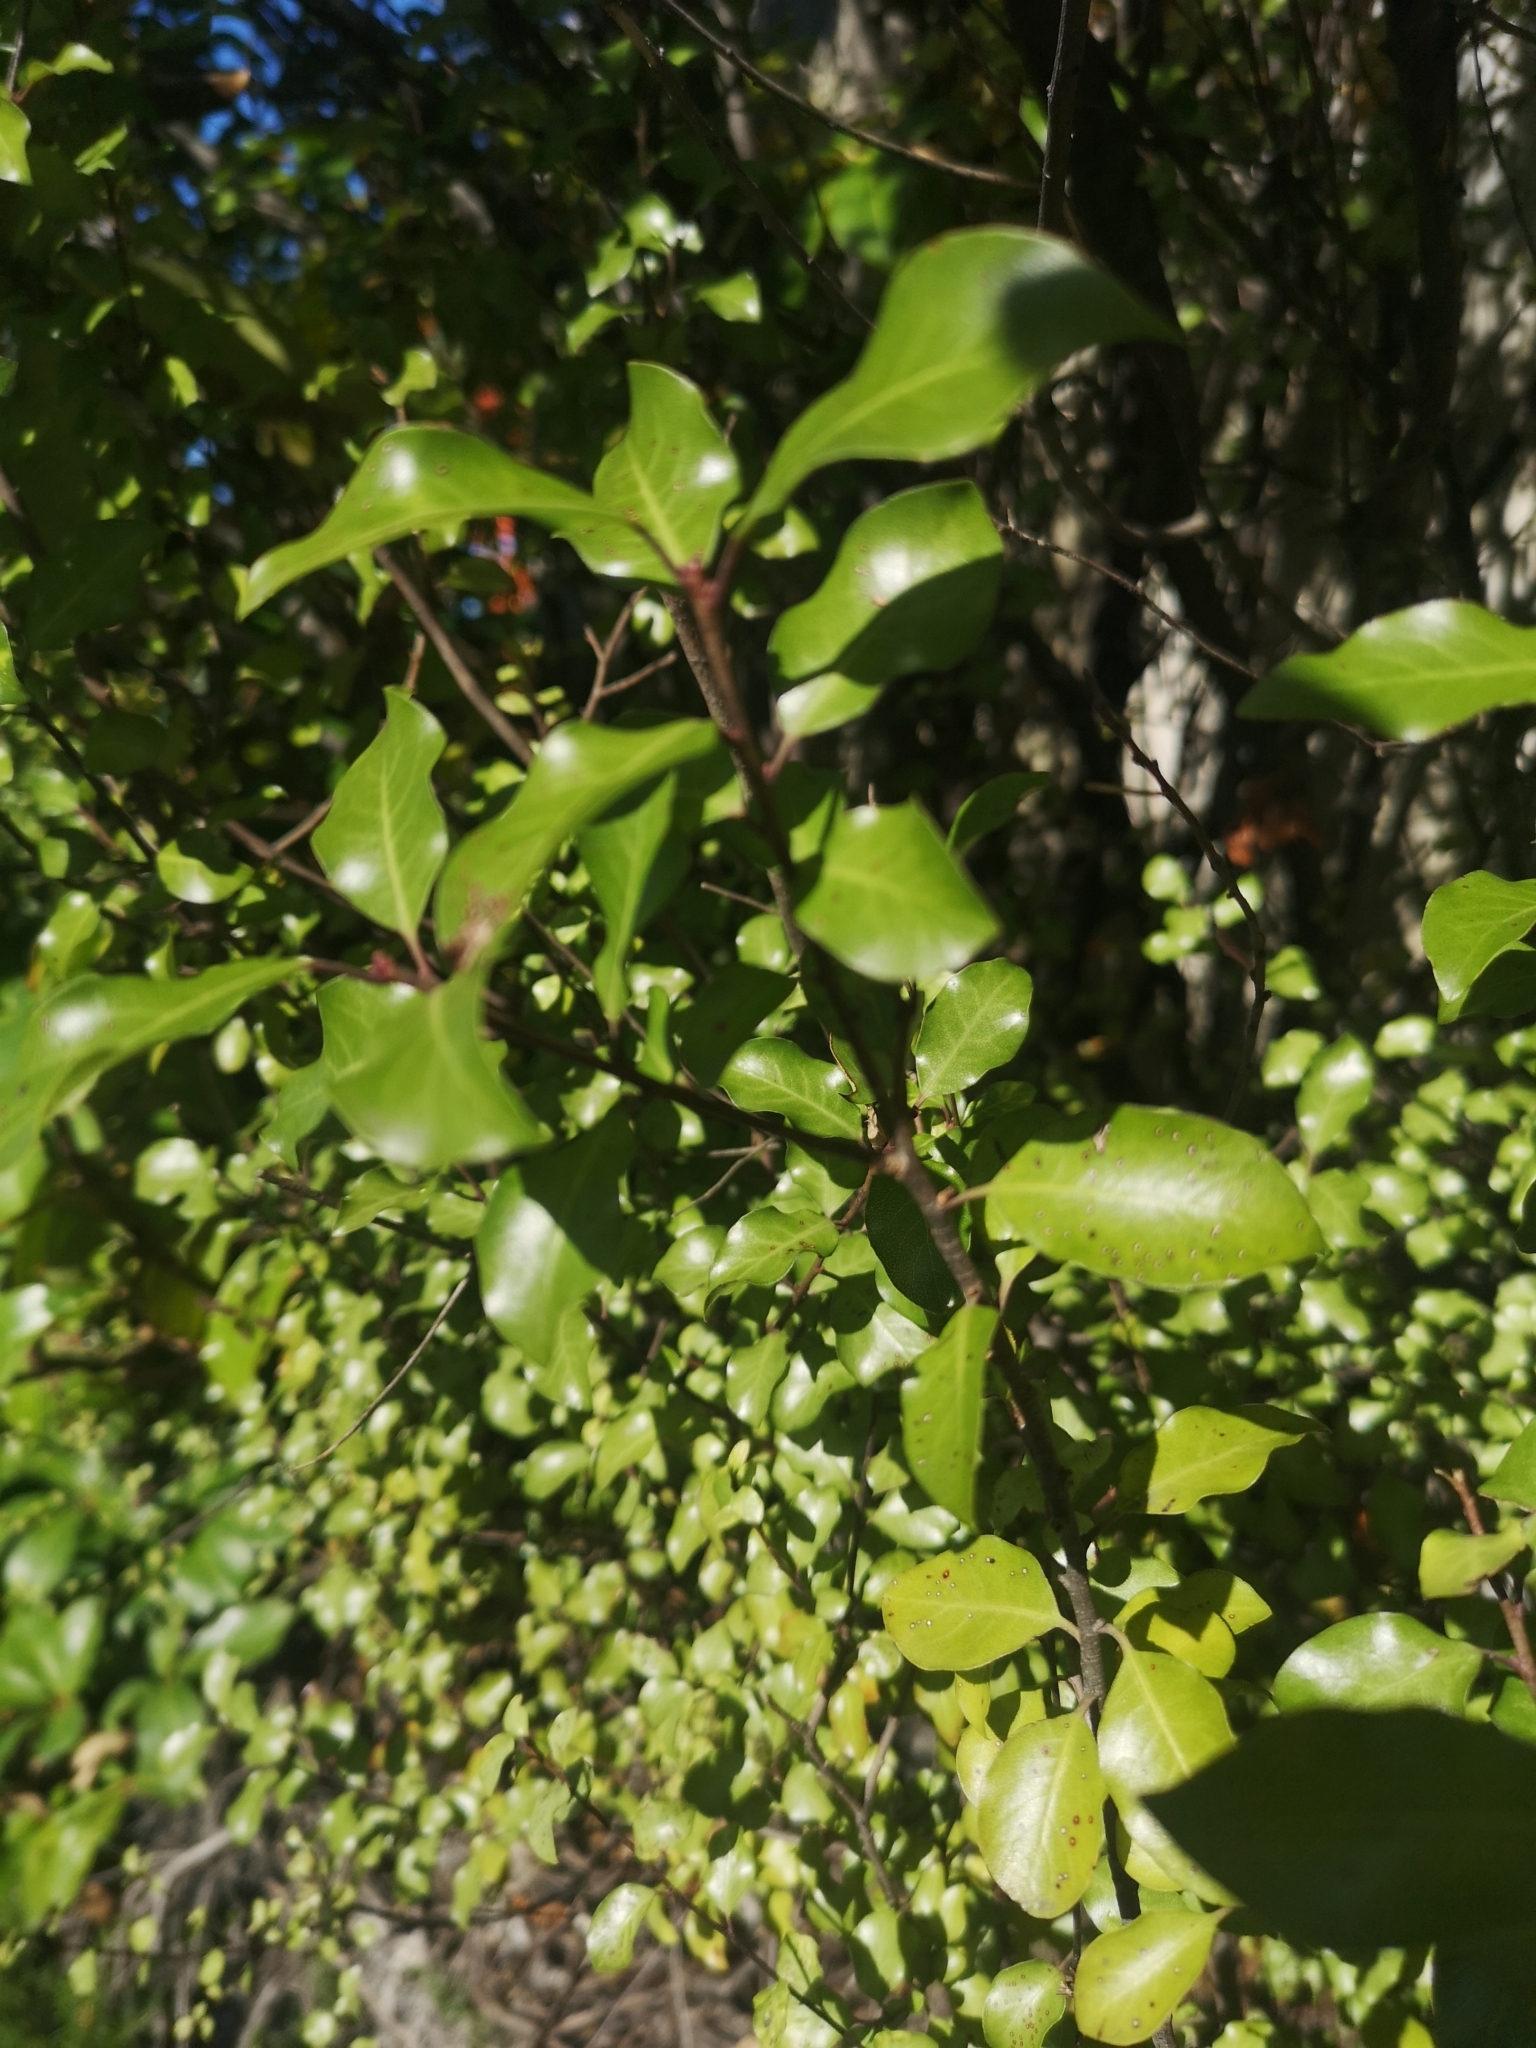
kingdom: Plantae
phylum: Tracheophyta
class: Magnoliopsida
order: Apiales
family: Pittosporaceae
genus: Pittosporum
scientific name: Pittosporum tenuifolium
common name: Kohuhu
